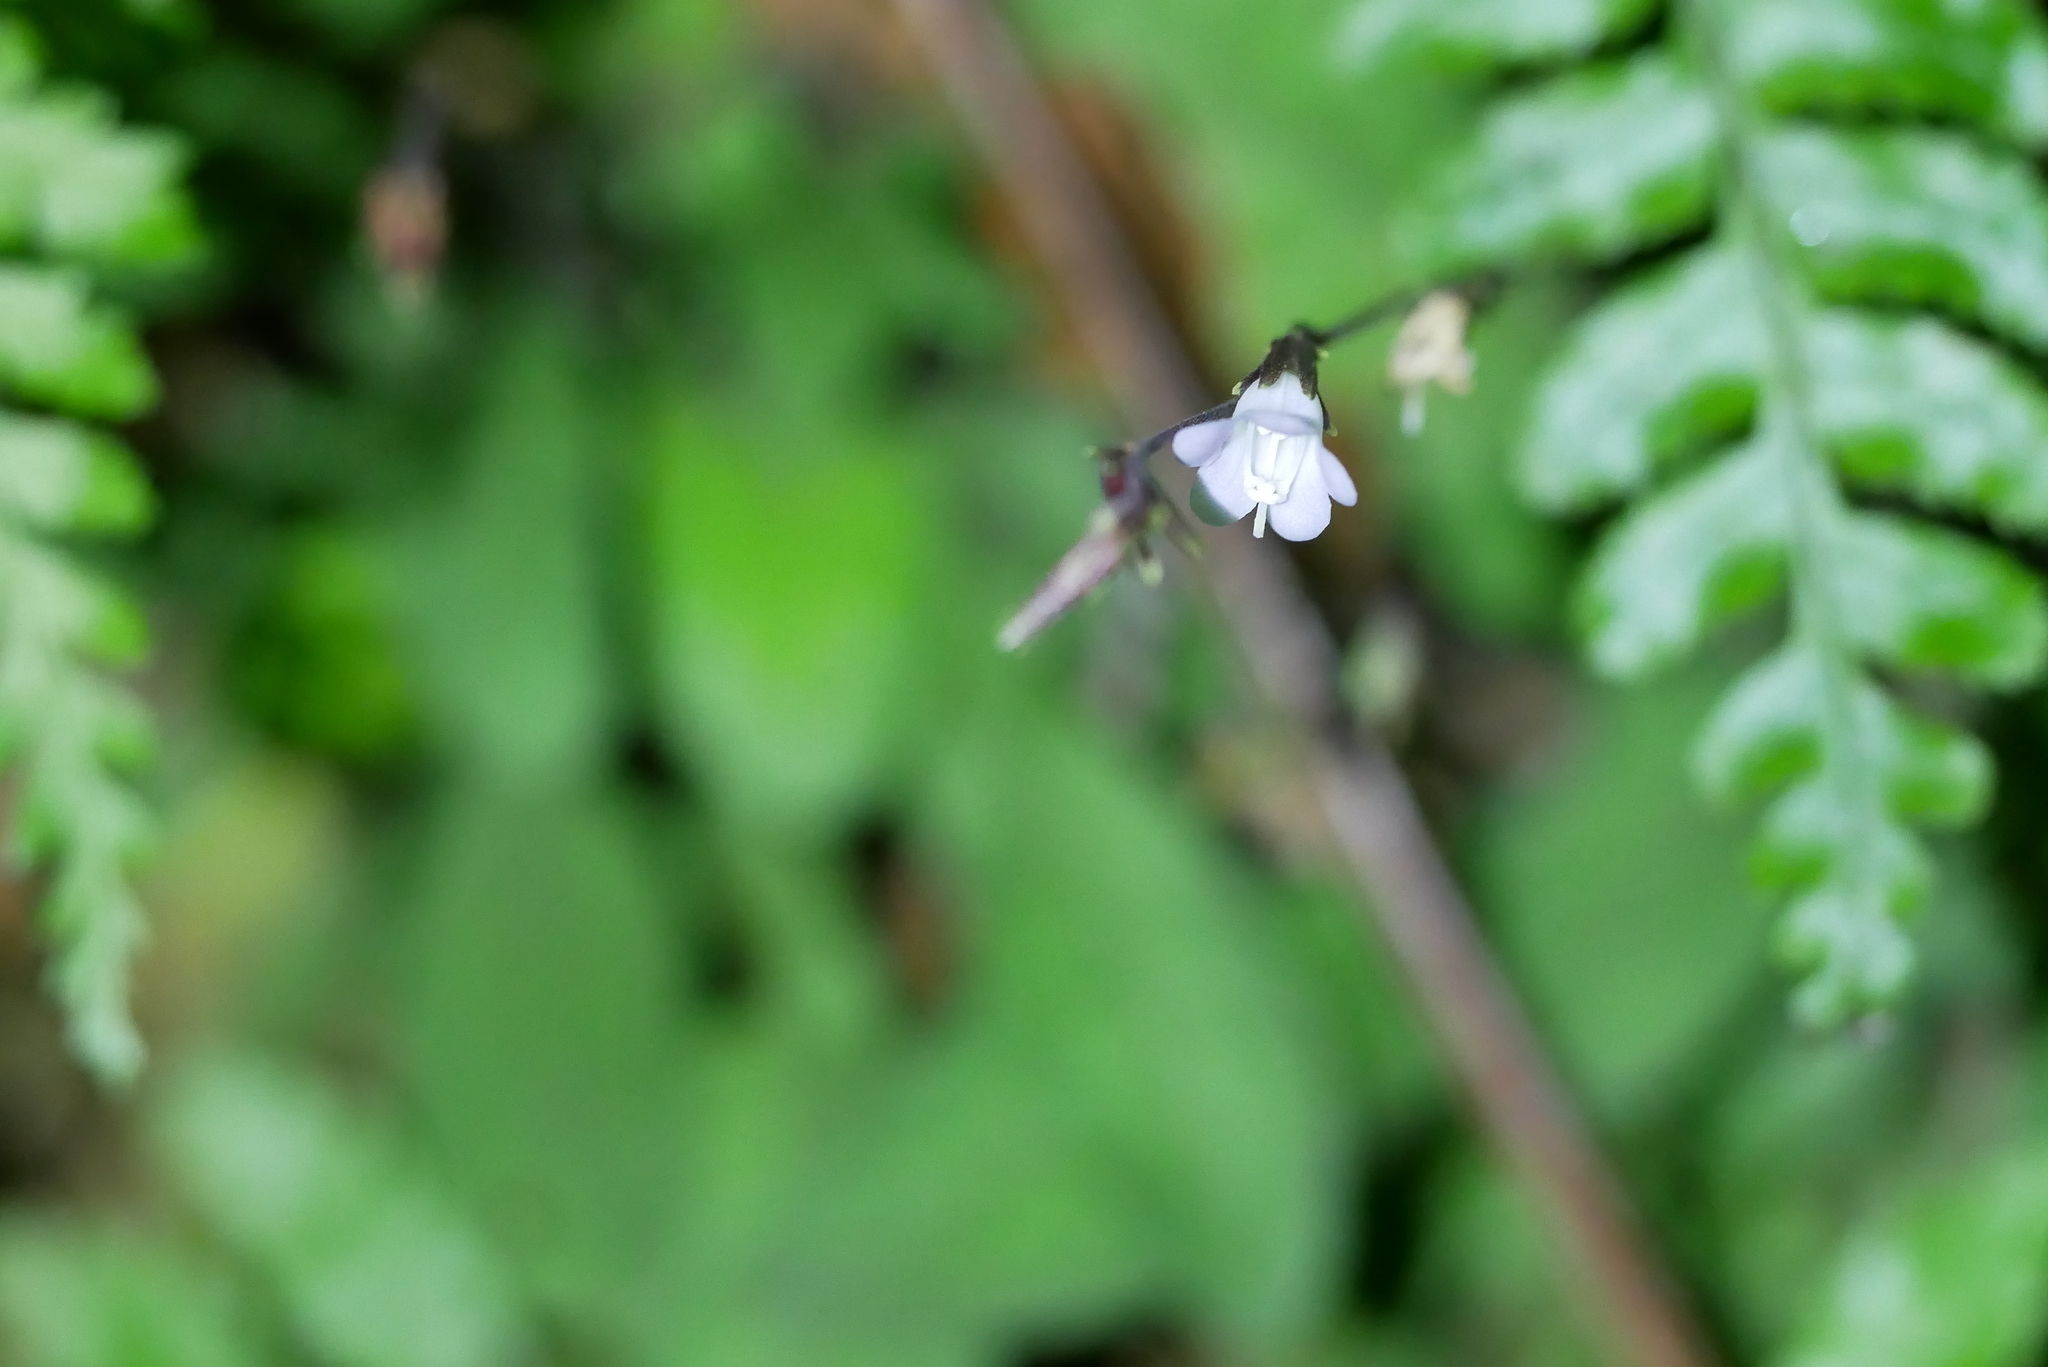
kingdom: Plantae
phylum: Tracheophyta
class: Magnoliopsida
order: Lamiales
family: Acanthaceae
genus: Staurogyne
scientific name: Staurogyne concinnula
